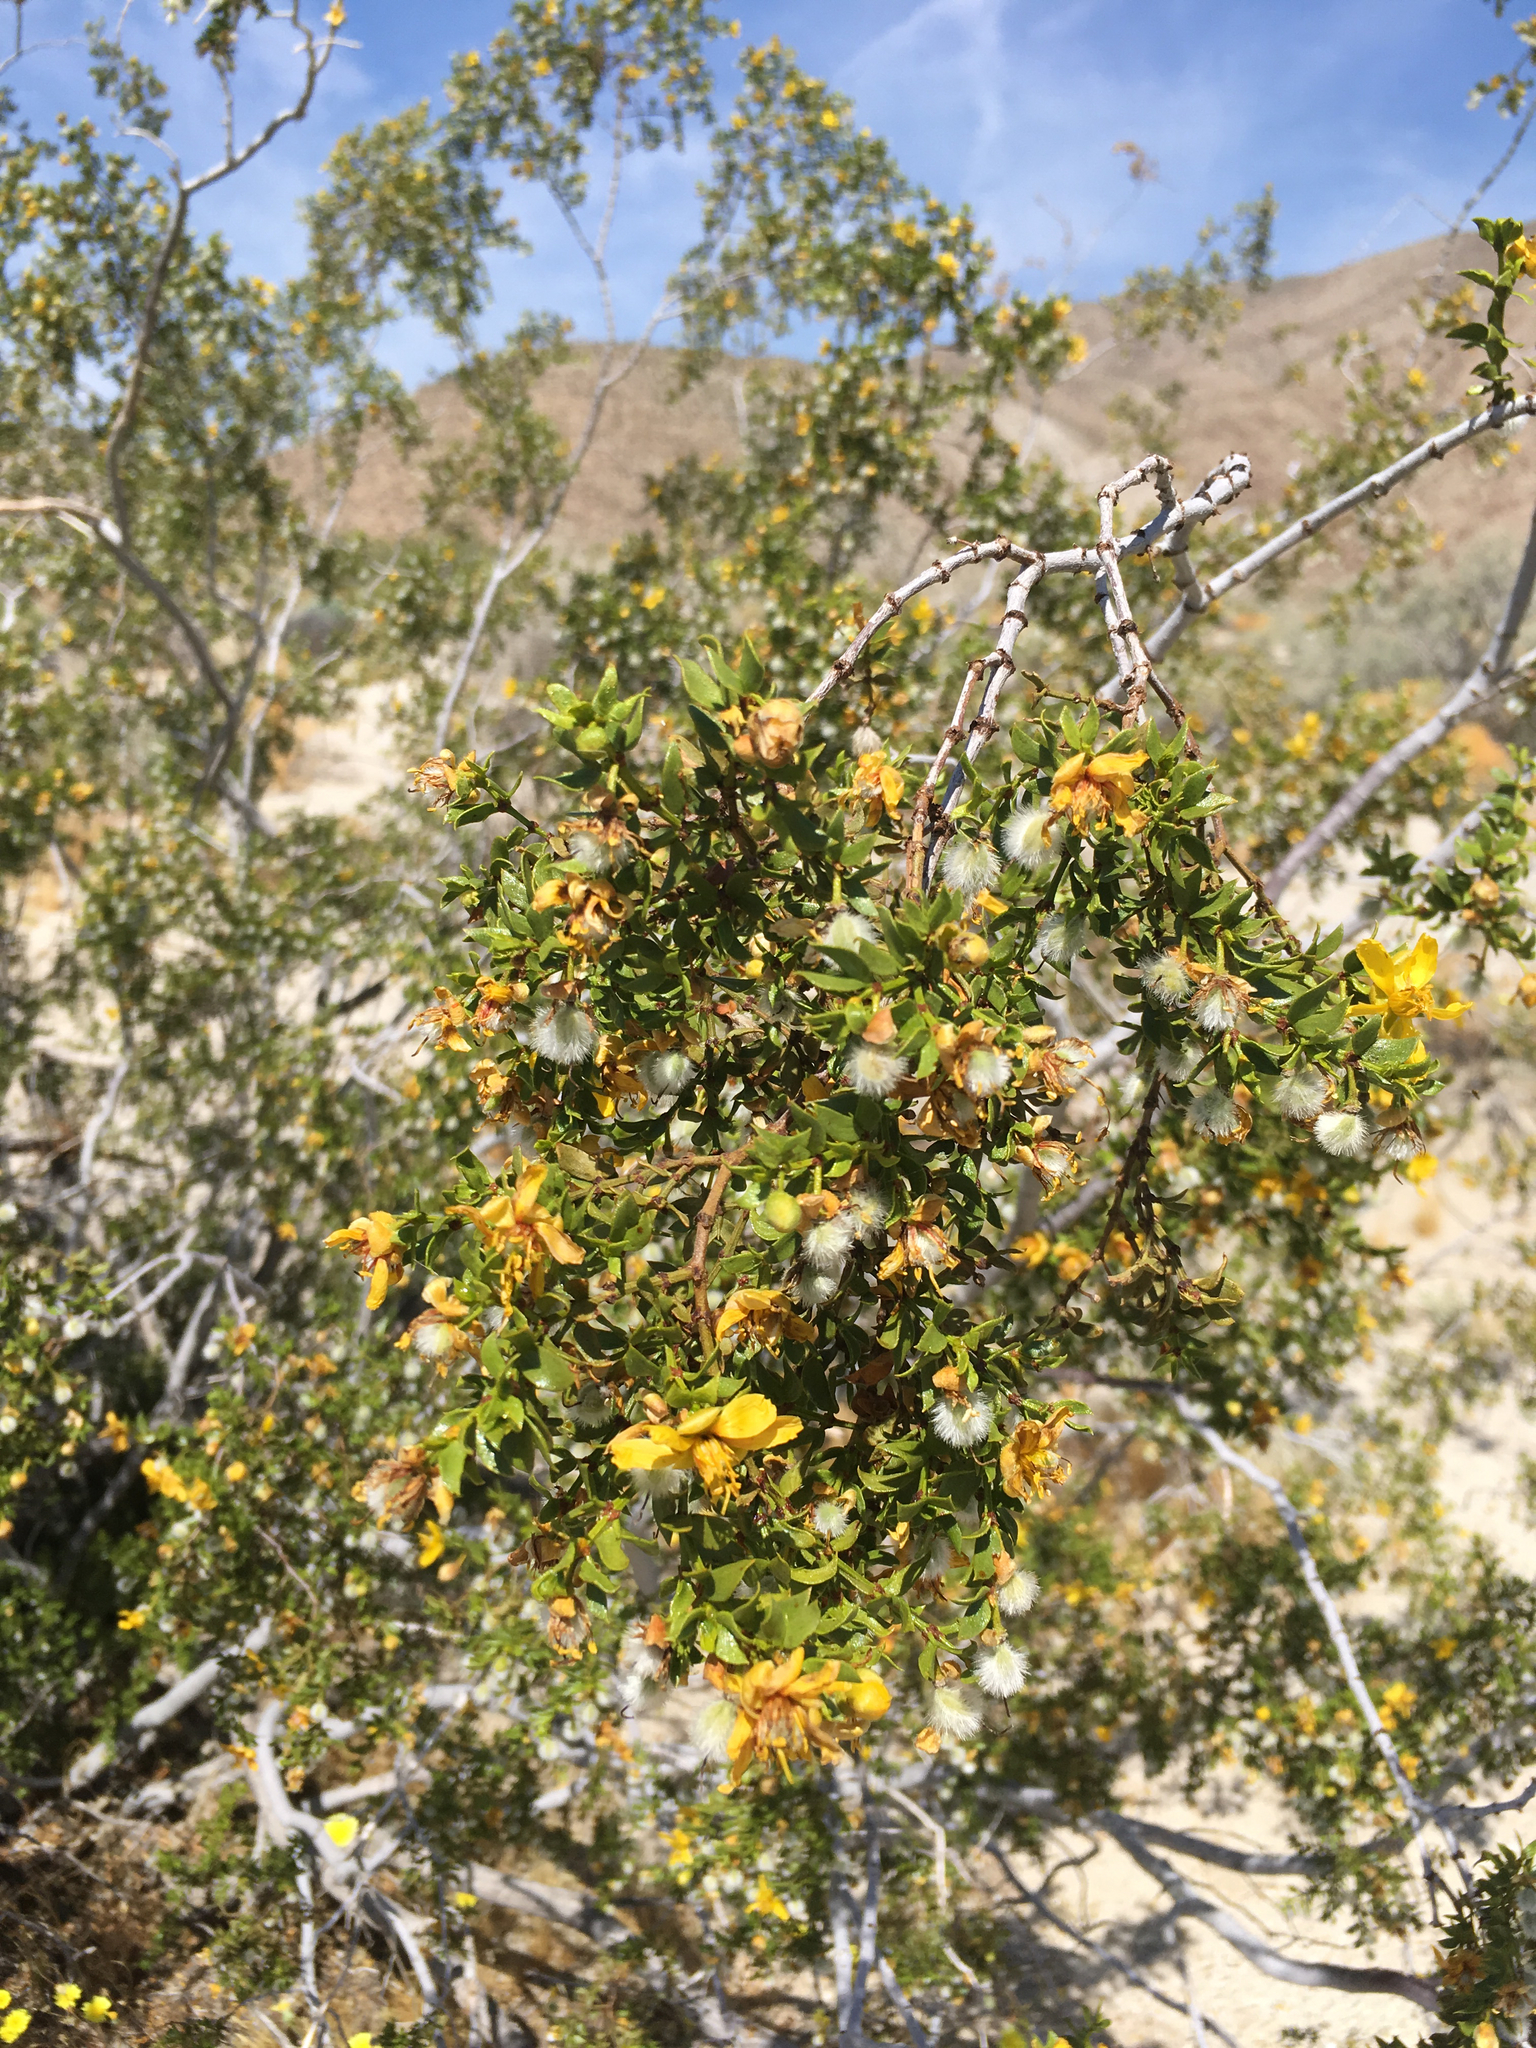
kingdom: Plantae
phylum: Tracheophyta
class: Magnoliopsida
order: Zygophyllales
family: Zygophyllaceae
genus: Larrea
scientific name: Larrea tridentata
